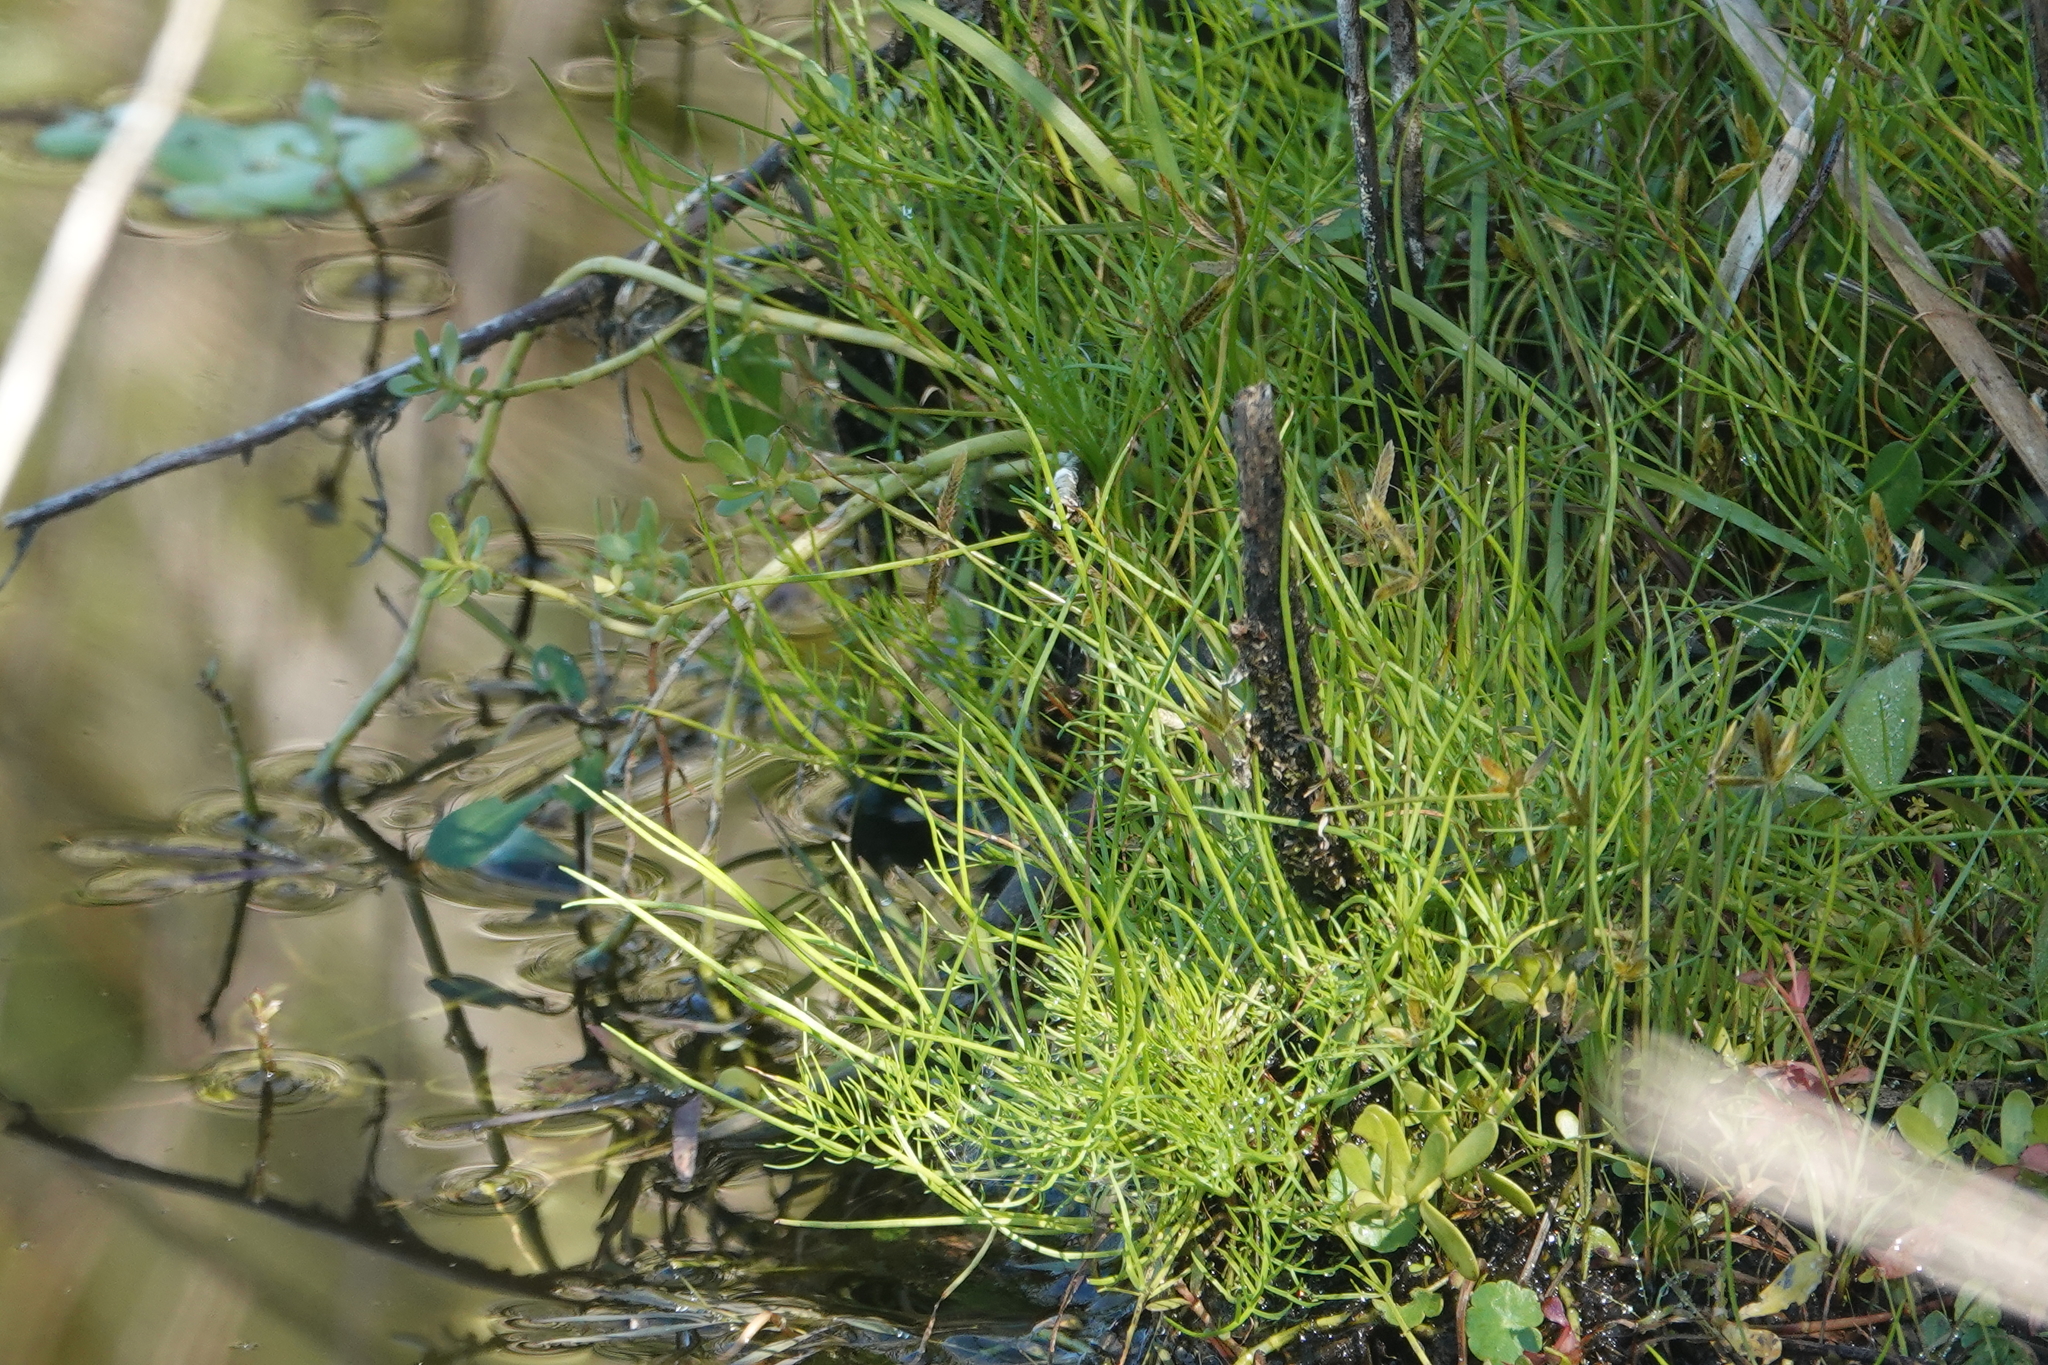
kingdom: Plantae
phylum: Tracheophyta
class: Polypodiopsida
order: Polypodiales
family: Pteridaceae
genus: Ceratopteris
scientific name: Ceratopteris thalictroides
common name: Water fern
